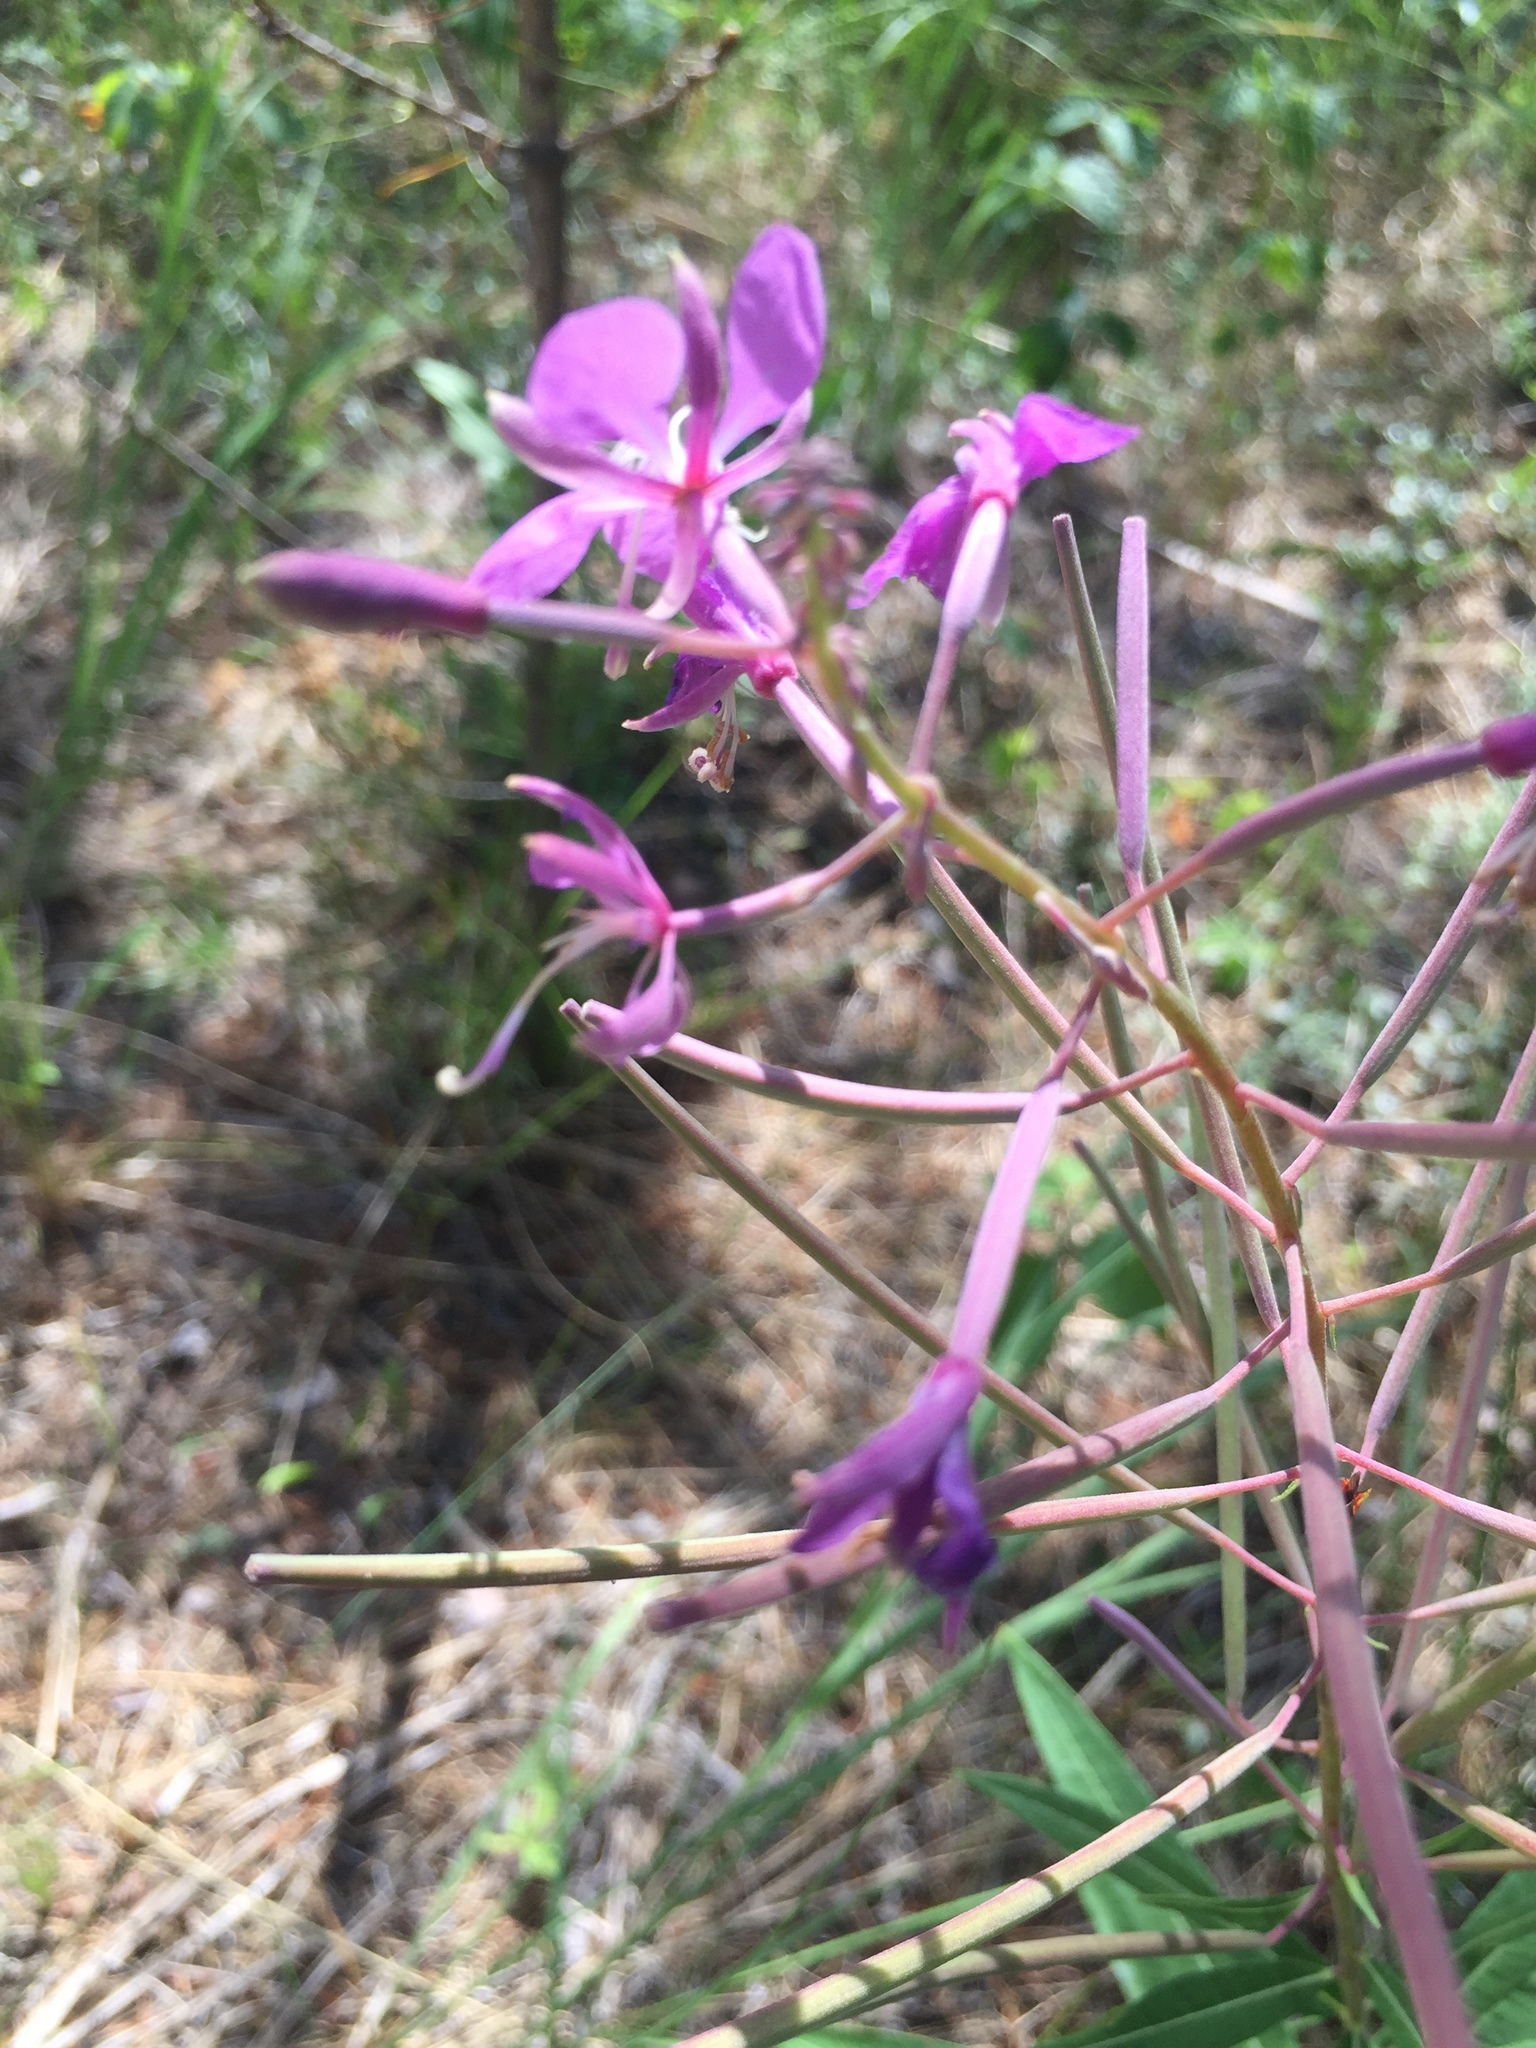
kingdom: Plantae
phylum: Tracheophyta
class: Magnoliopsida
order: Myrtales
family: Onagraceae
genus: Chamaenerion
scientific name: Chamaenerion angustifolium
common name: Fireweed
